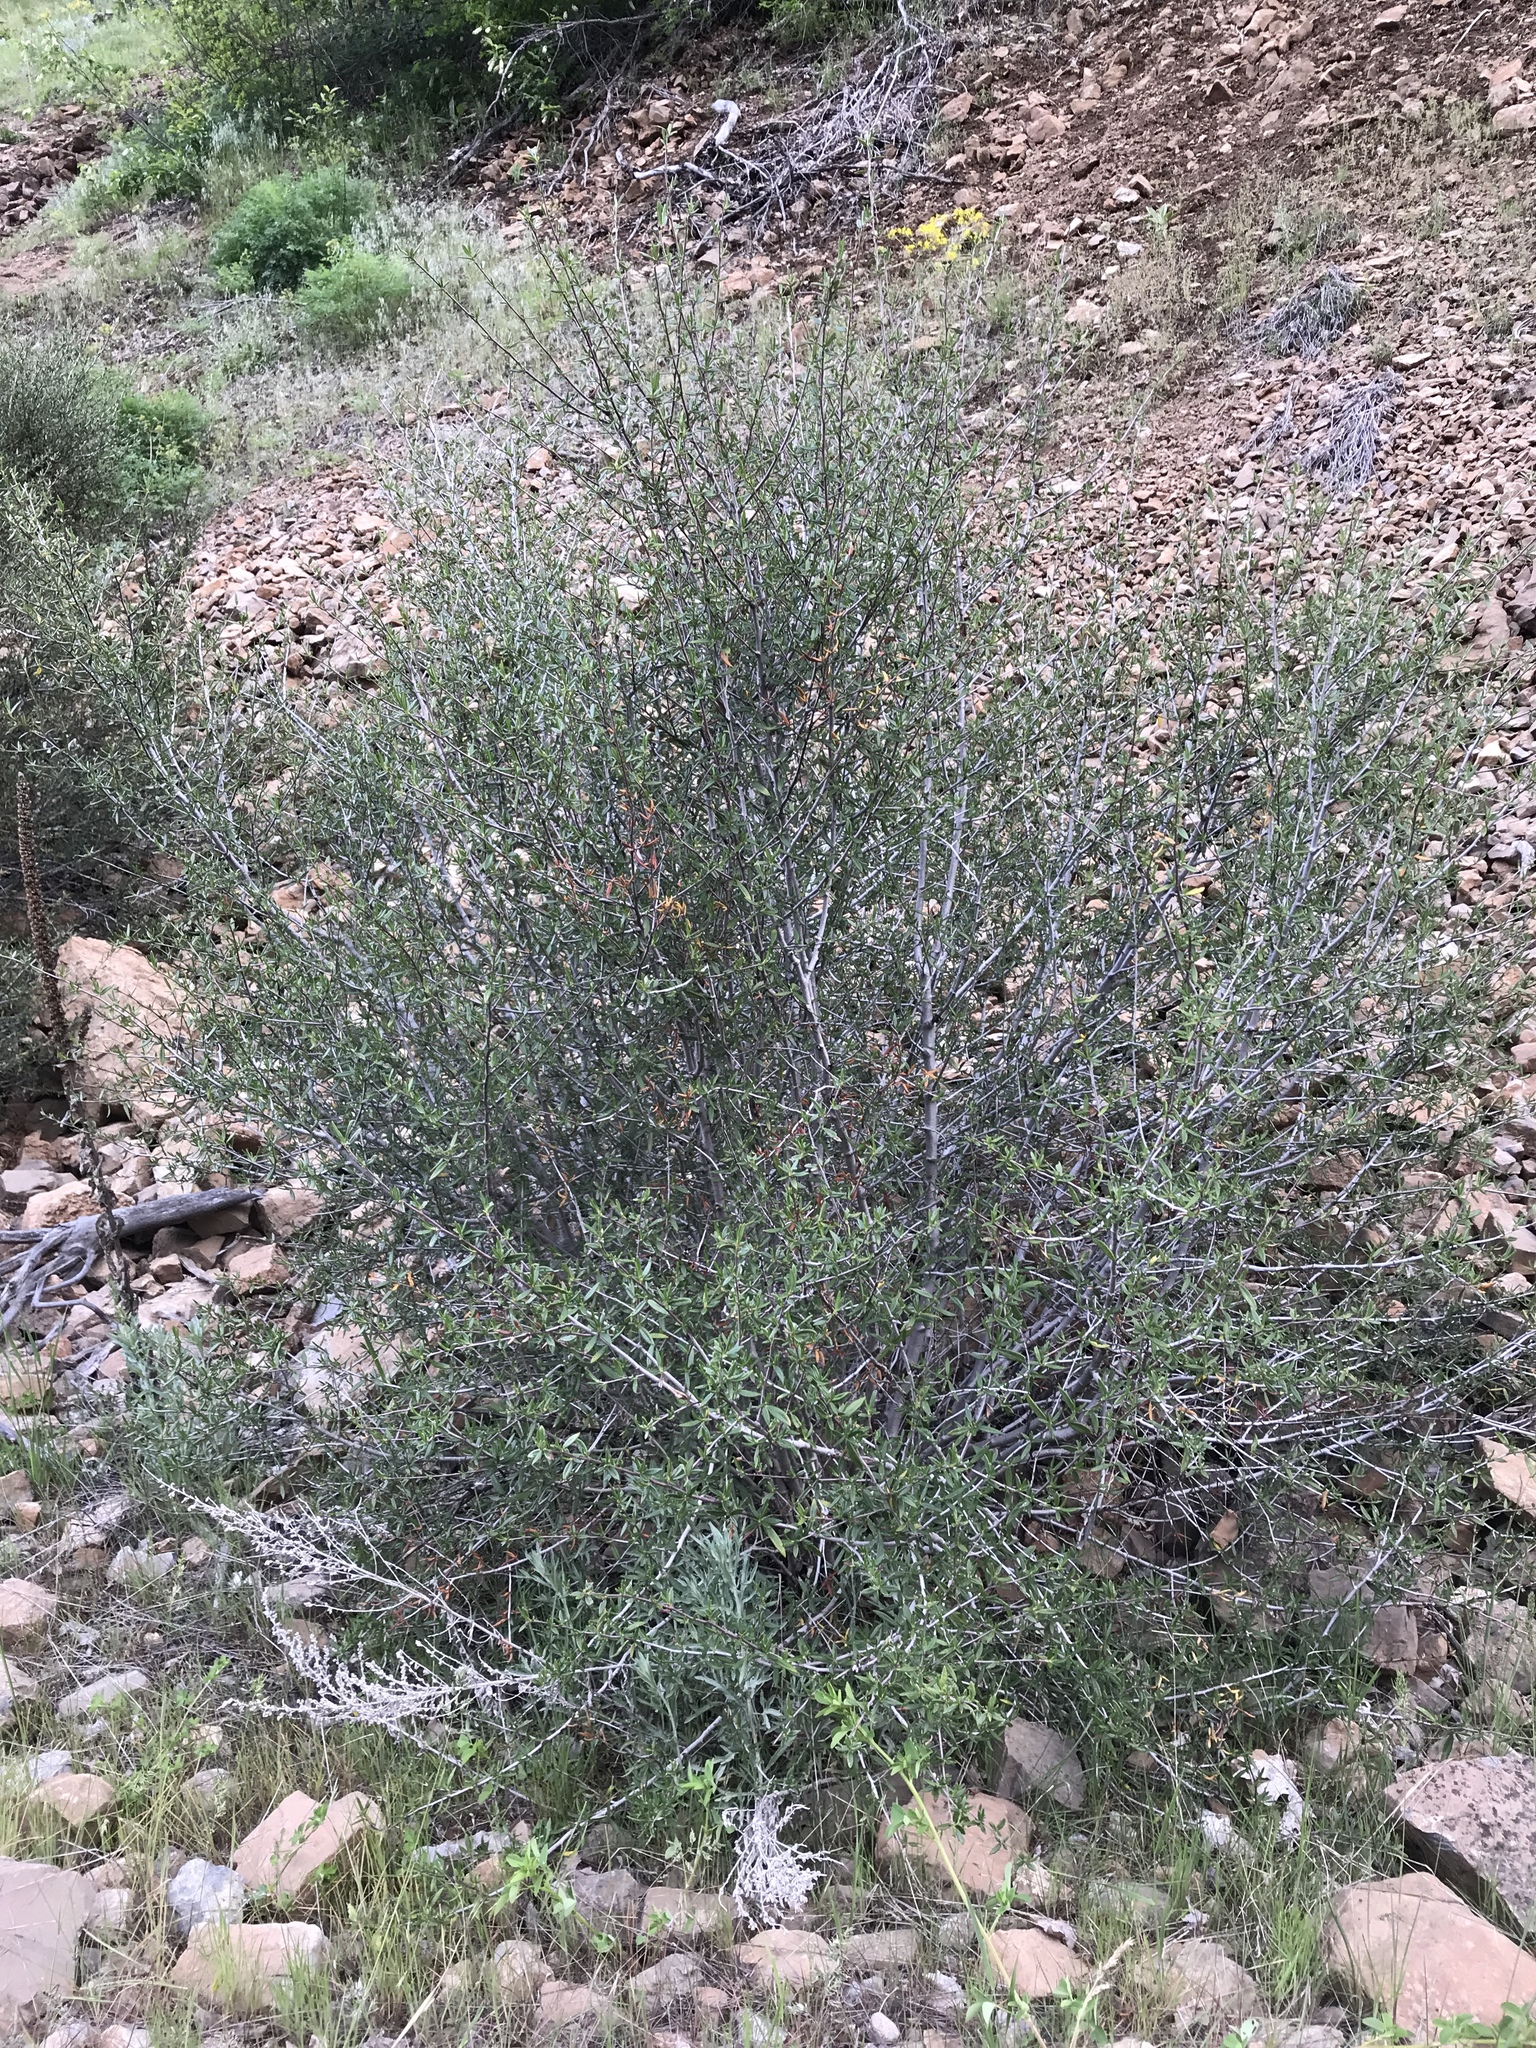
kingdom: Plantae
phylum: Tracheophyta
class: Magnoliopsida
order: Rosales
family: Rosaceae
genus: Cercocarpus
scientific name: Cercocarpus ledifolius
